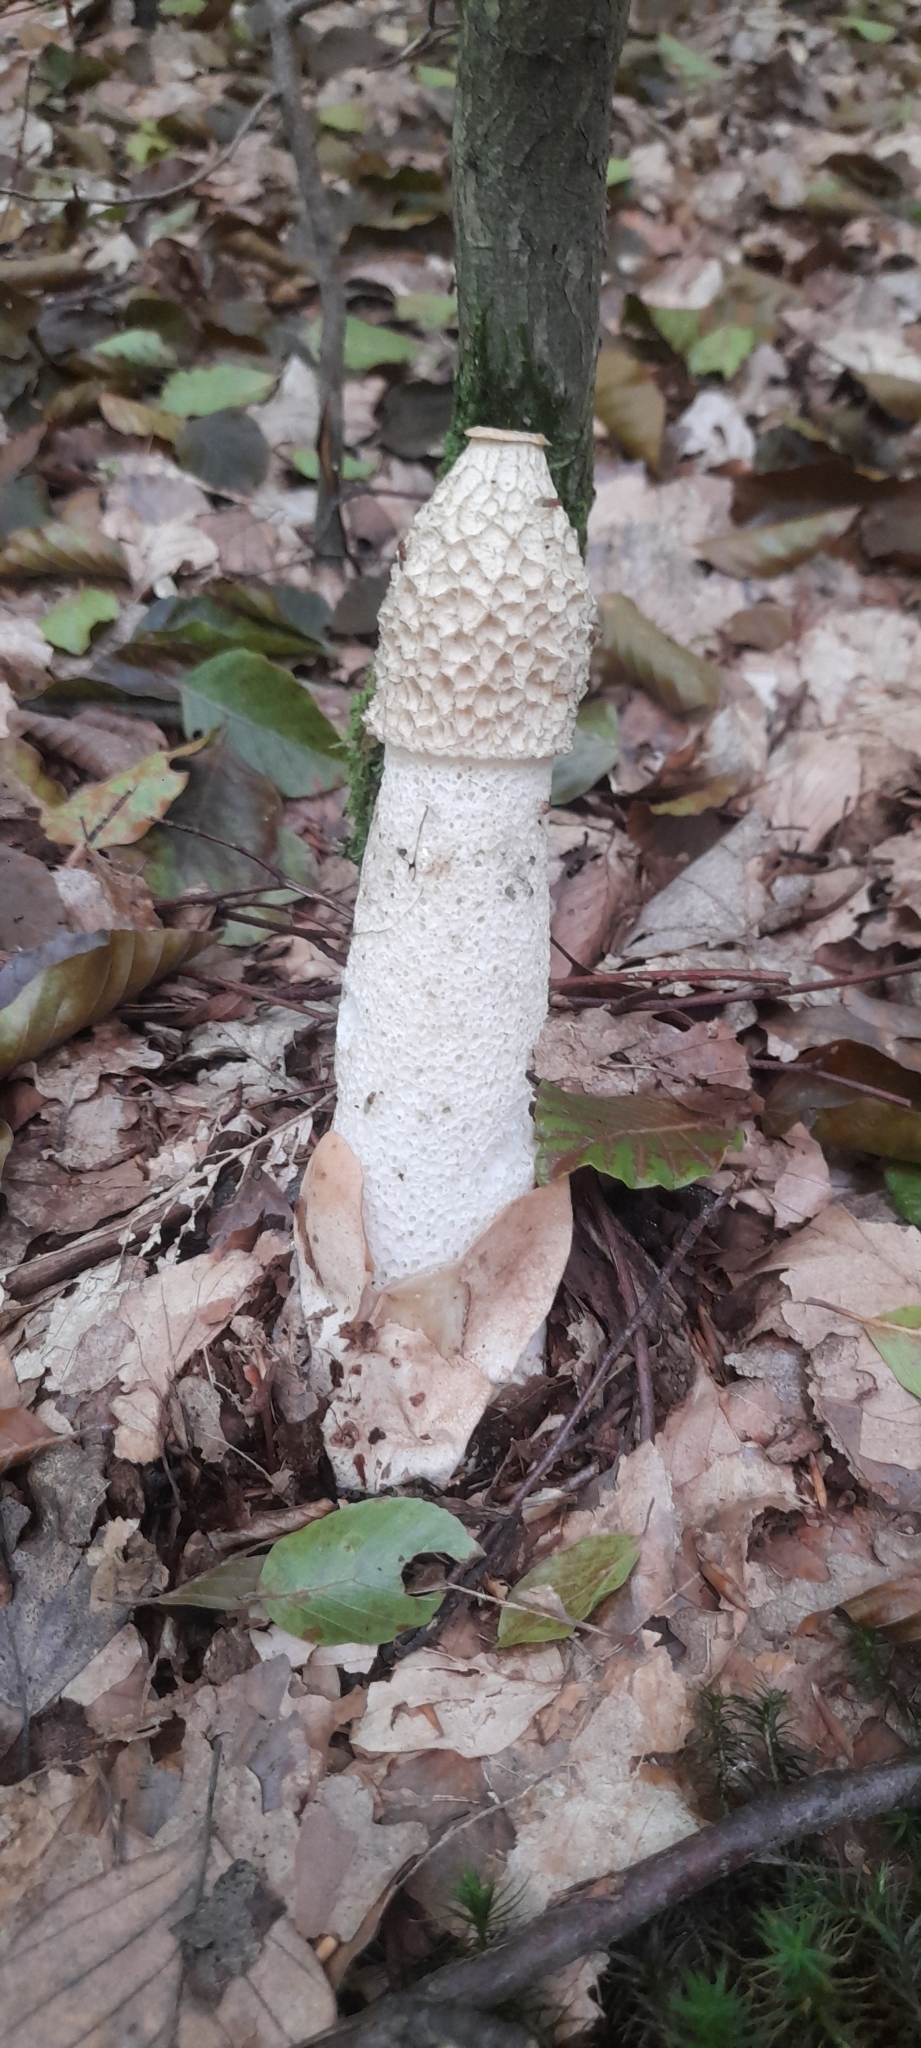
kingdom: Fungi
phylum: Basidiomycota
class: Agaricomycetes
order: Phallales
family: Phallaceae
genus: Phallus
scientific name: Phallus impudicus
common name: Common stinkhorn
